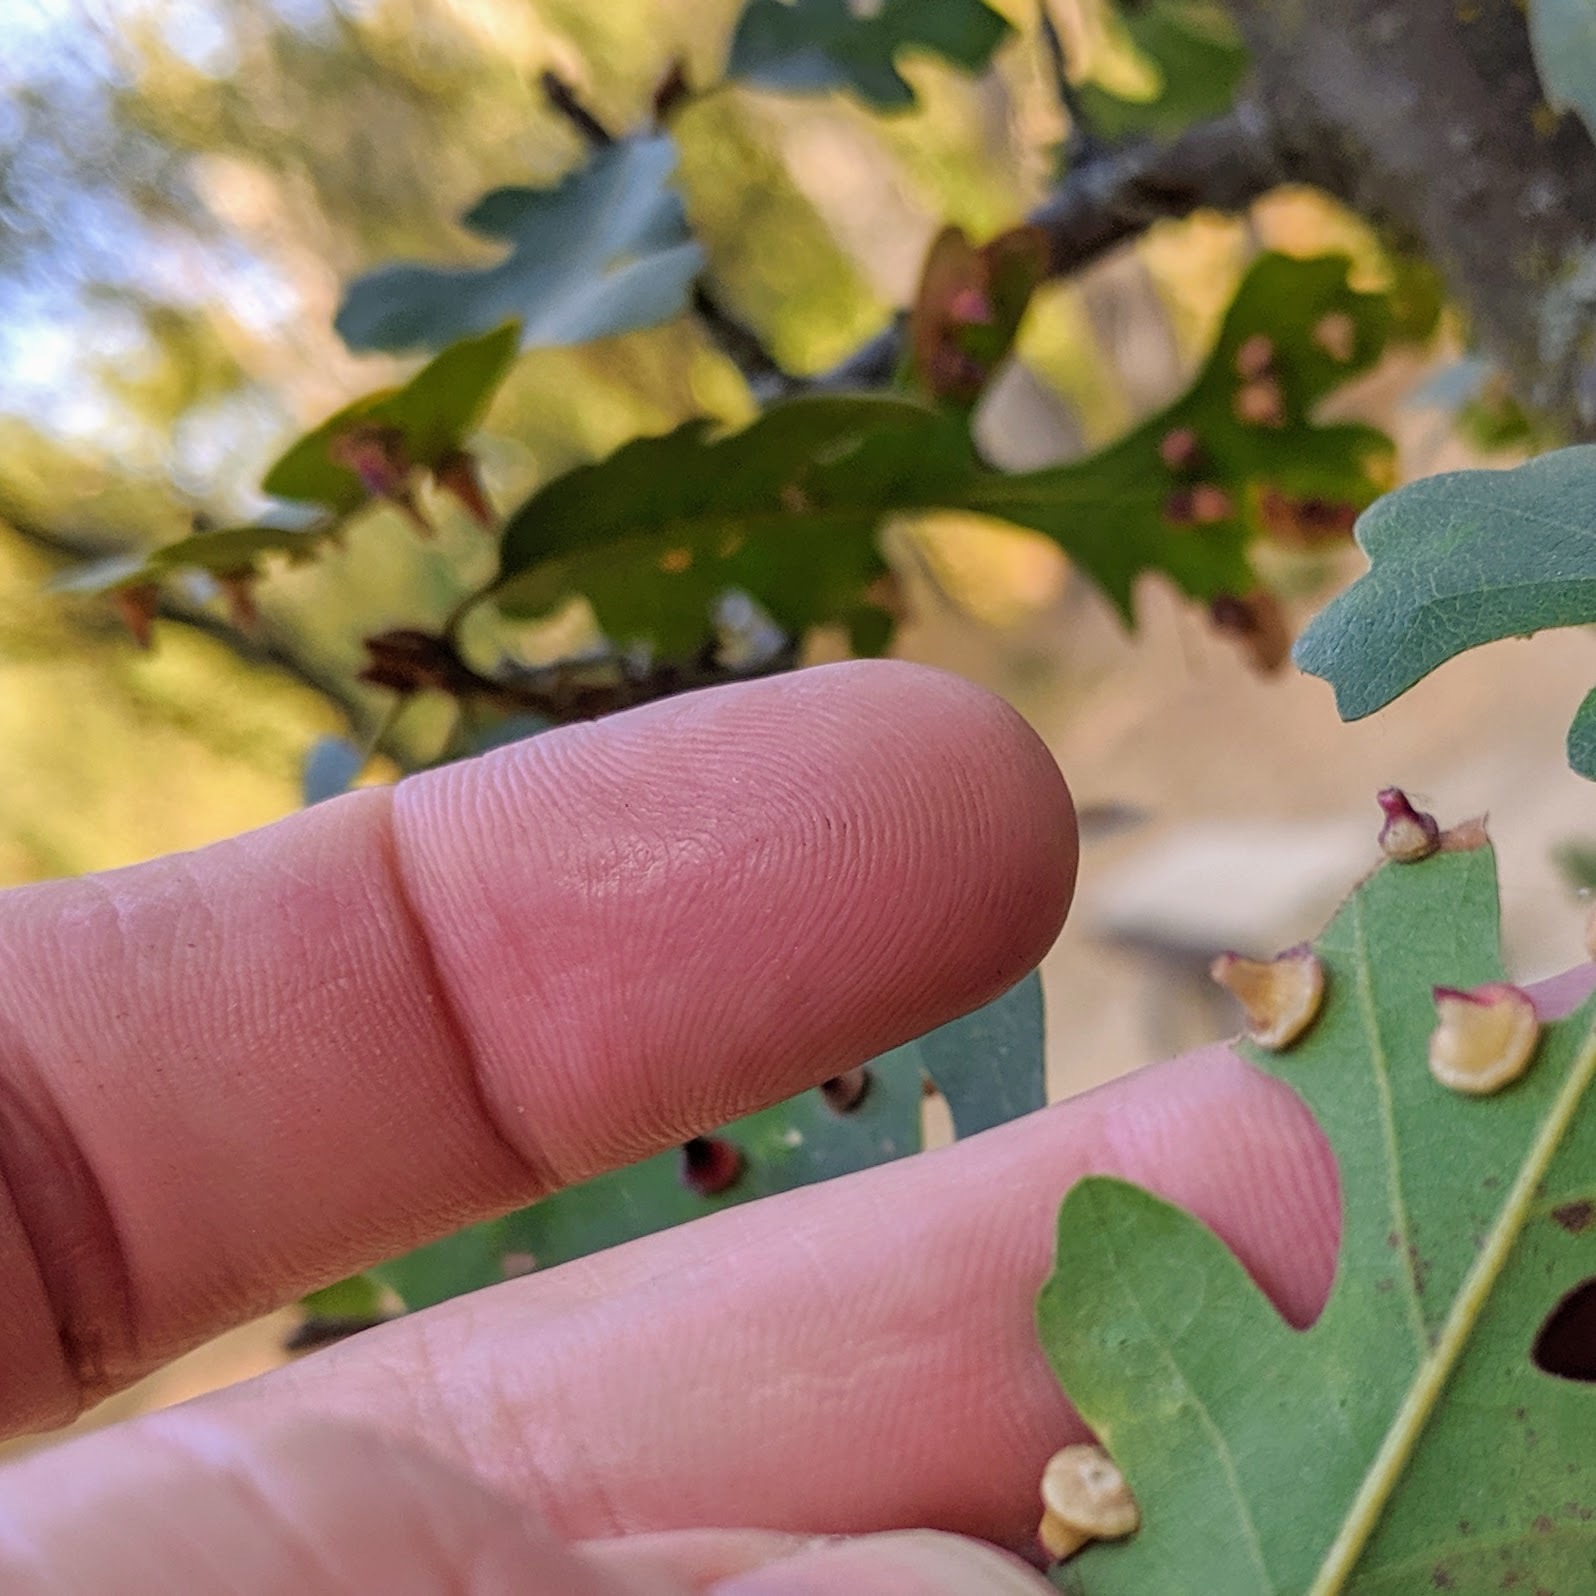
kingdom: Animalia
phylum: Arthropoda
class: Insecta
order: Hymenoptera
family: Cynipidae
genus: Andricus
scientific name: Andricus
